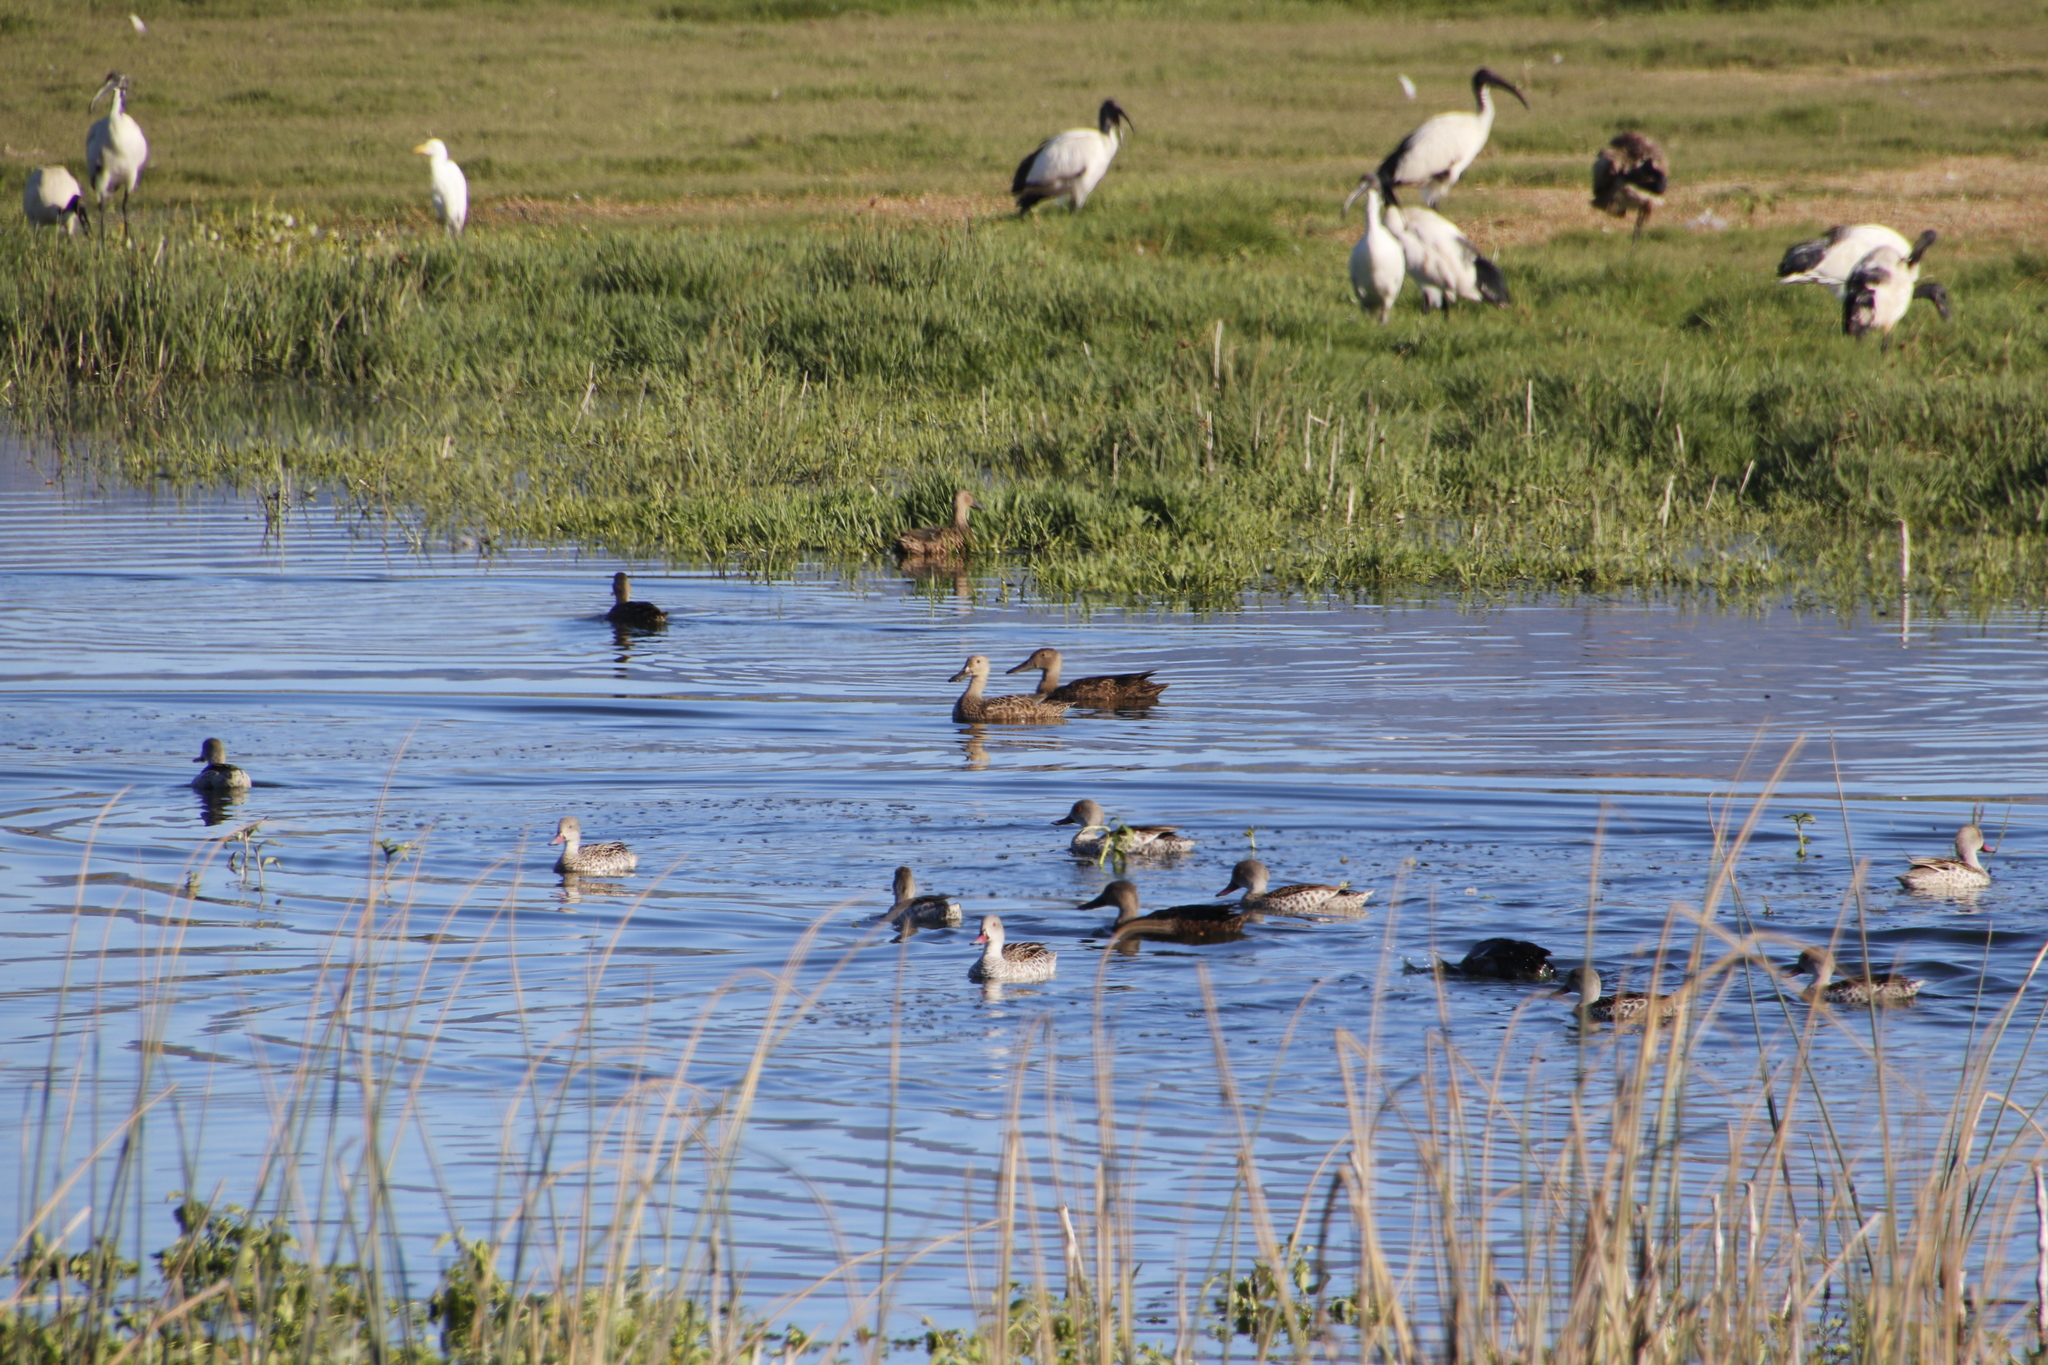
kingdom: Animalia
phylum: Chordata
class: Aves
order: Anseriformes
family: Anatidae
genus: Spatula
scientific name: Spatula smithii
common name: Cape shoveler
